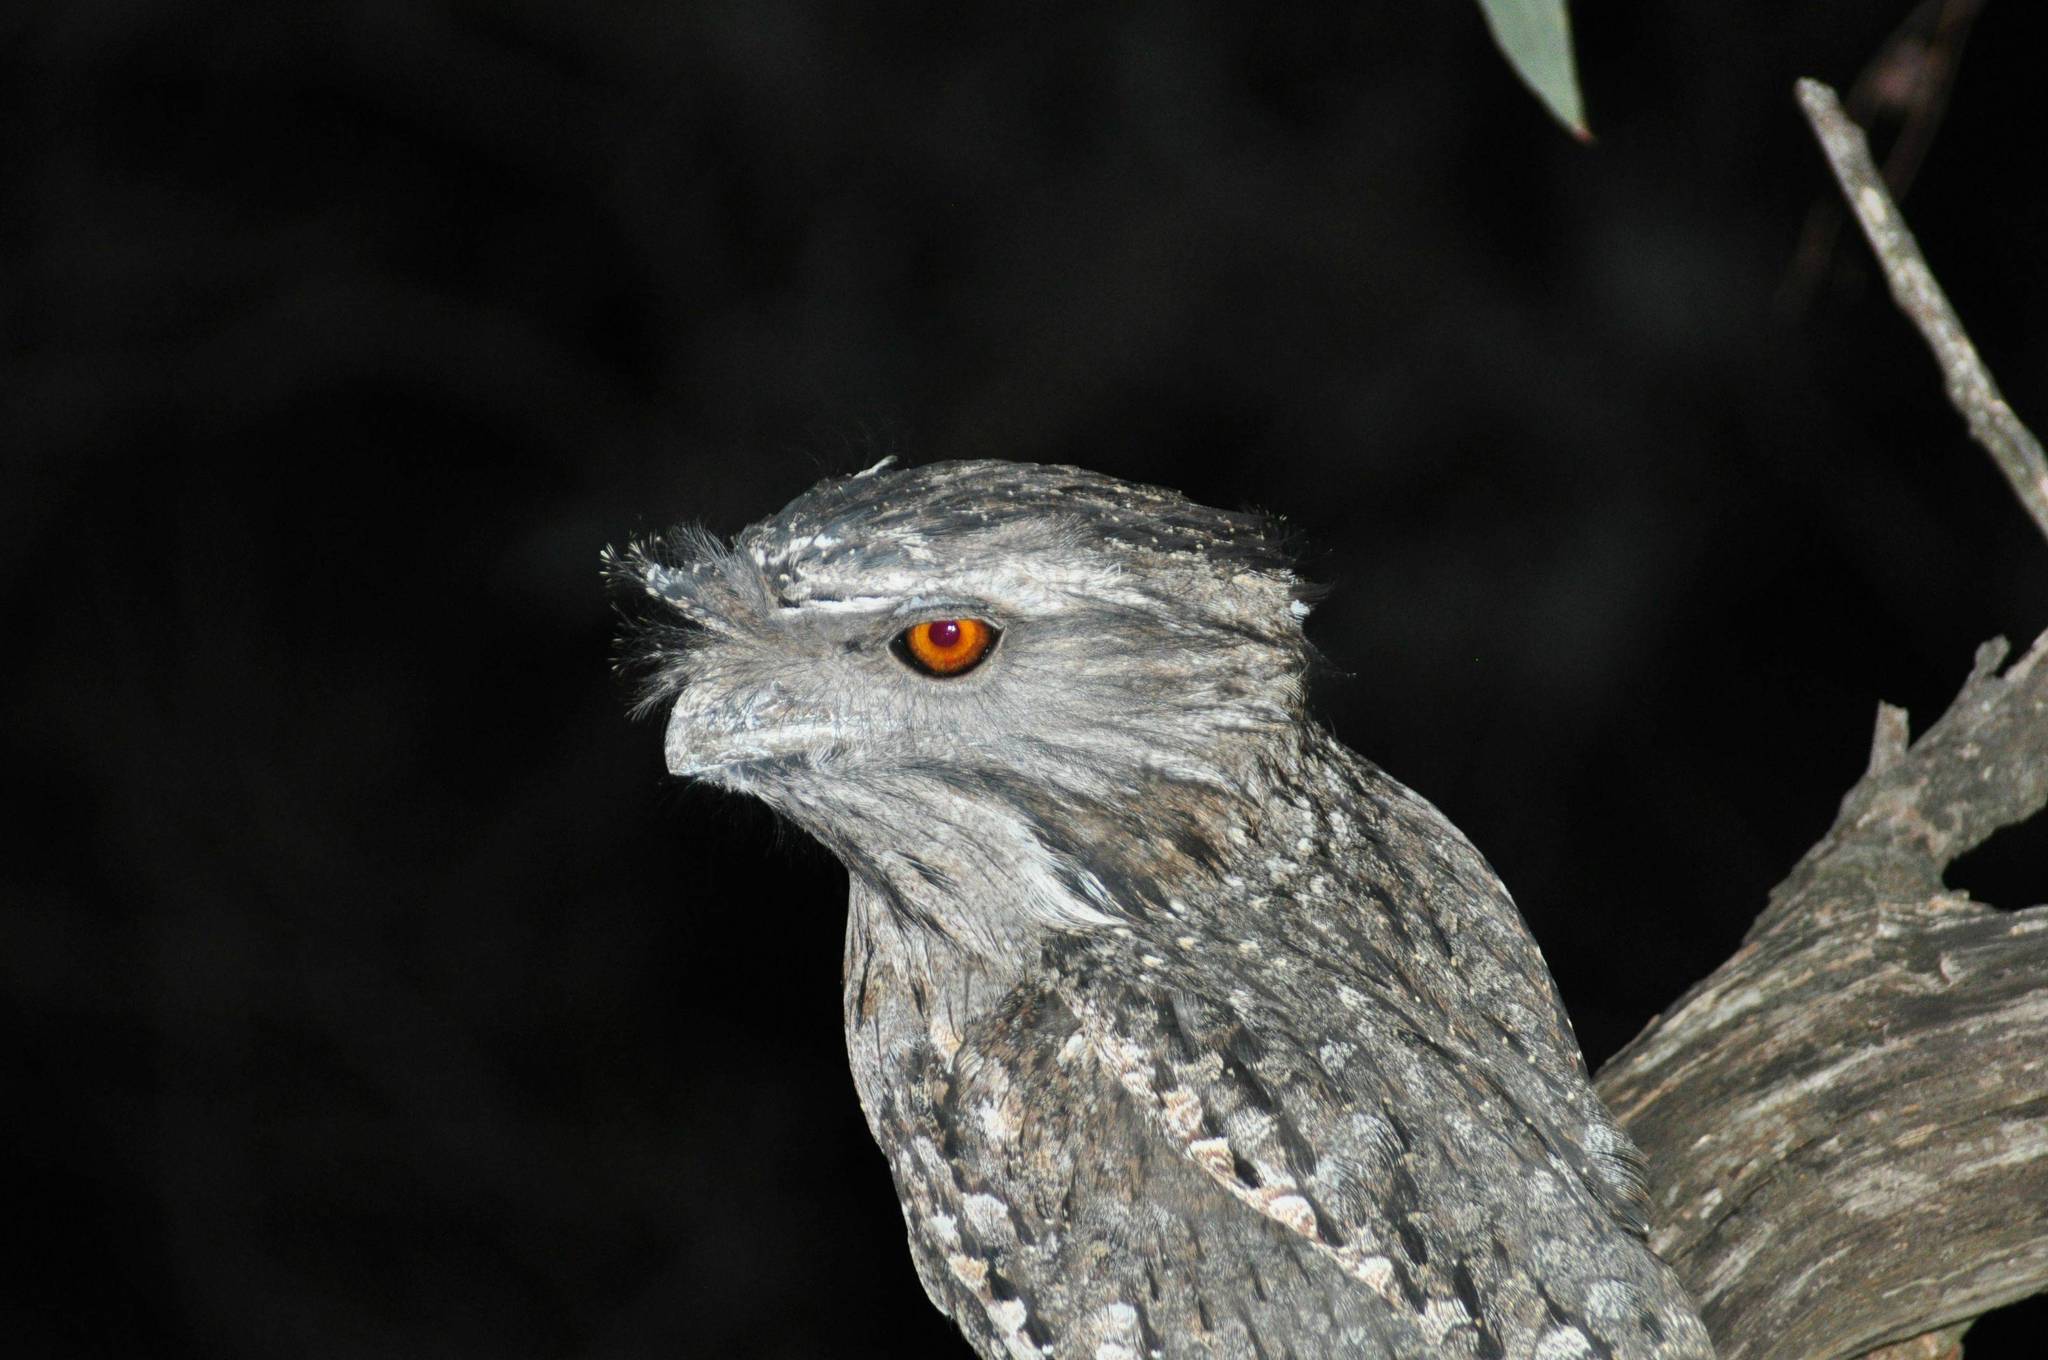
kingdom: Animalia
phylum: Chordata
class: Aves
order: Caprimulgiformes
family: Podargidae
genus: Podargus
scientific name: Podargus strigoides
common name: Tawny frogmouth
